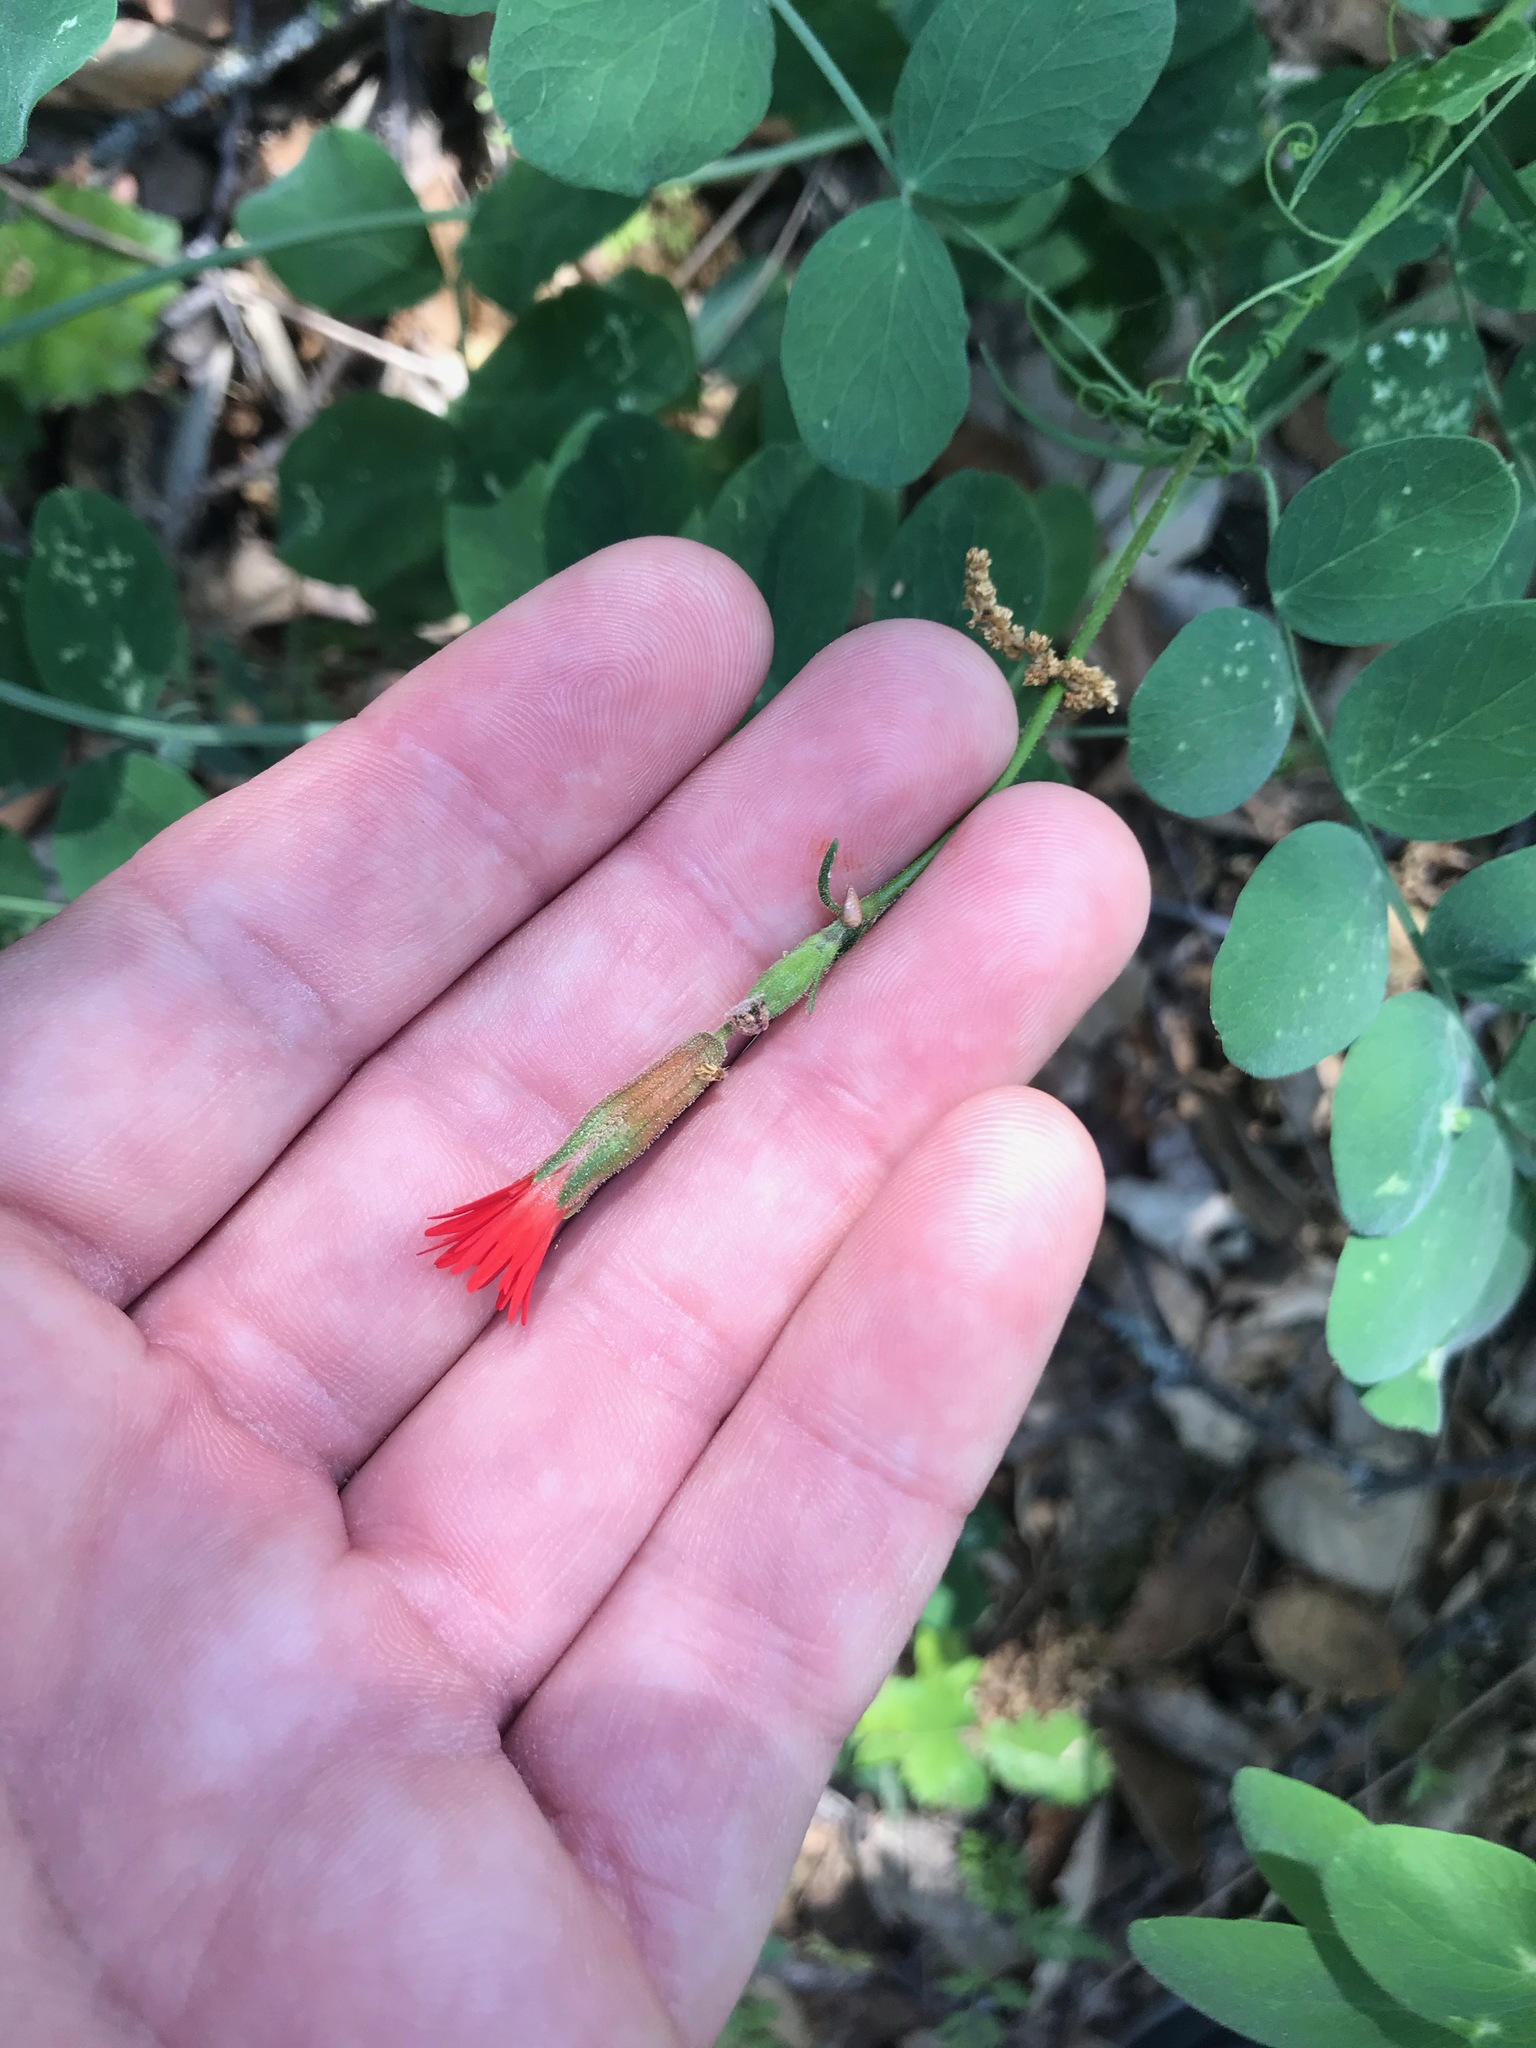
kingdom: Plantae
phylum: Tracheophyta
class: Magnoliopsida
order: Caryophyllales
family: Caryophyllaceae
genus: Silene
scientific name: Silene laciniata
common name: Indian-pink
